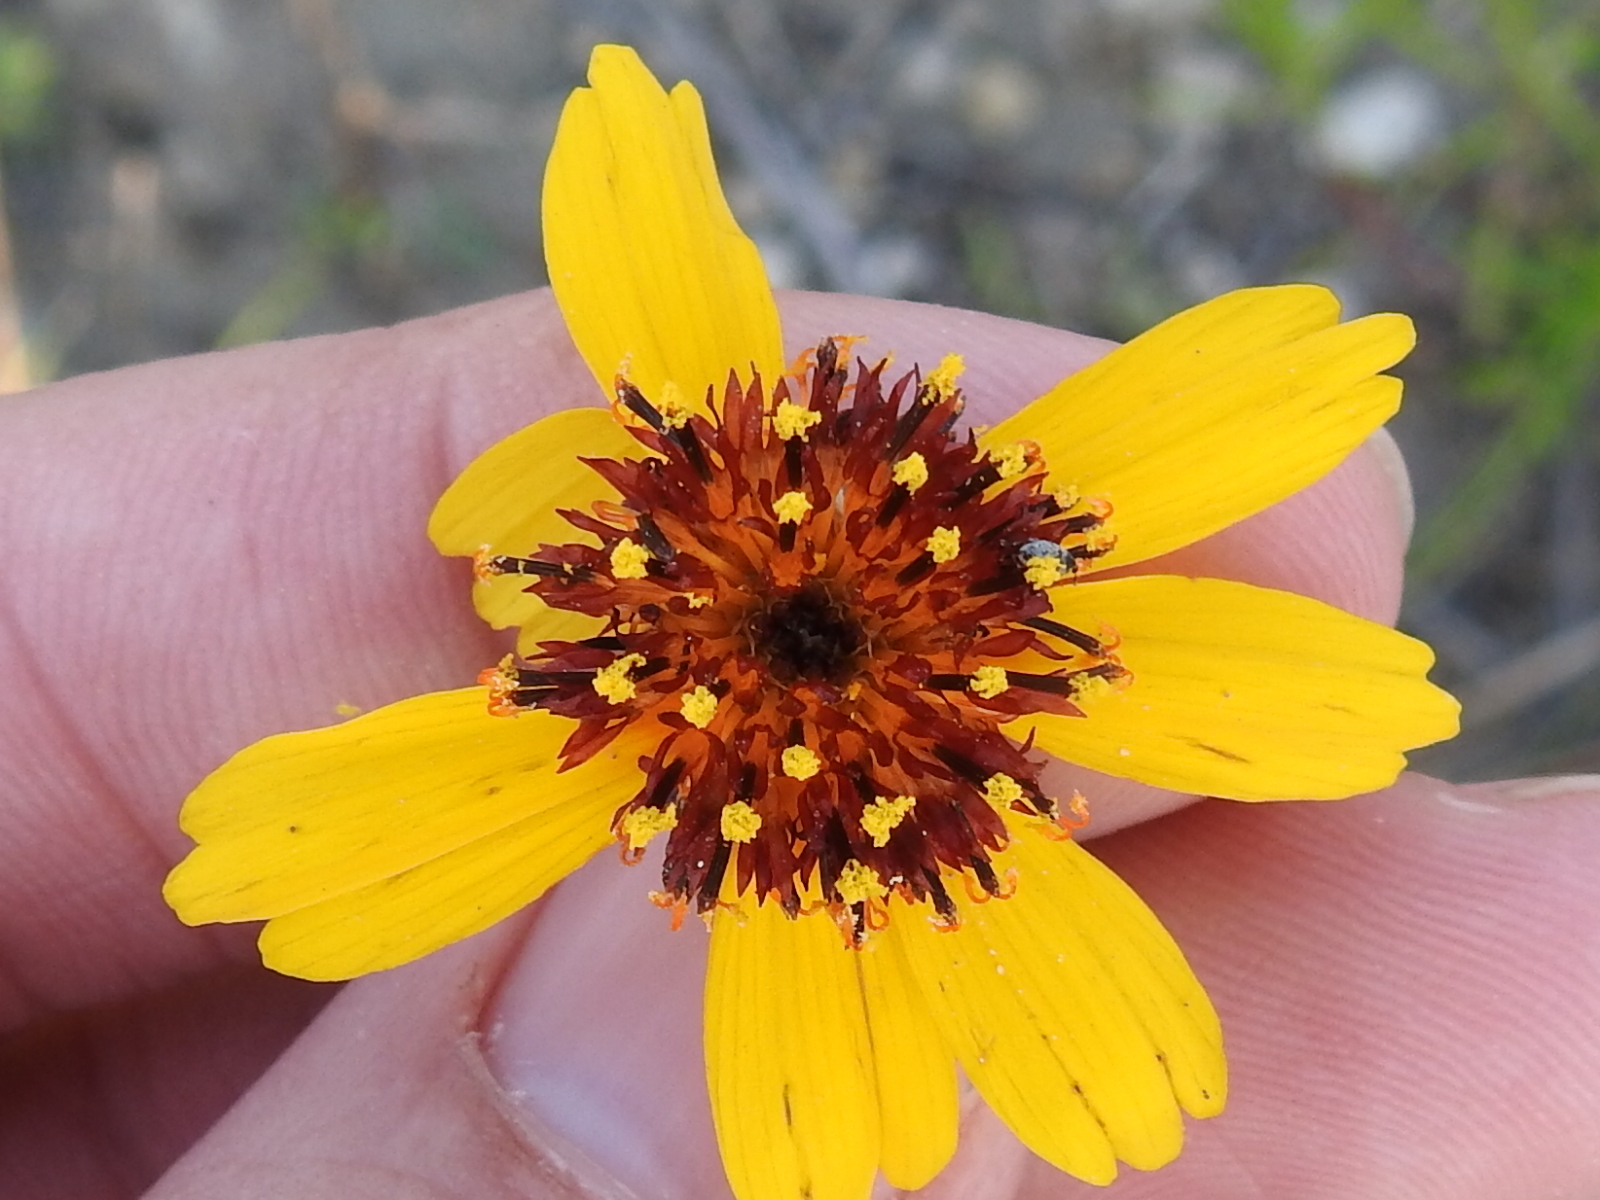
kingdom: Plantae
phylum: Tracheophyta
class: Magnoliopsida
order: Asterales
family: Asteraceae
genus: Thelesperma
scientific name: Thelesperma filifolium
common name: Stiff greenthread
